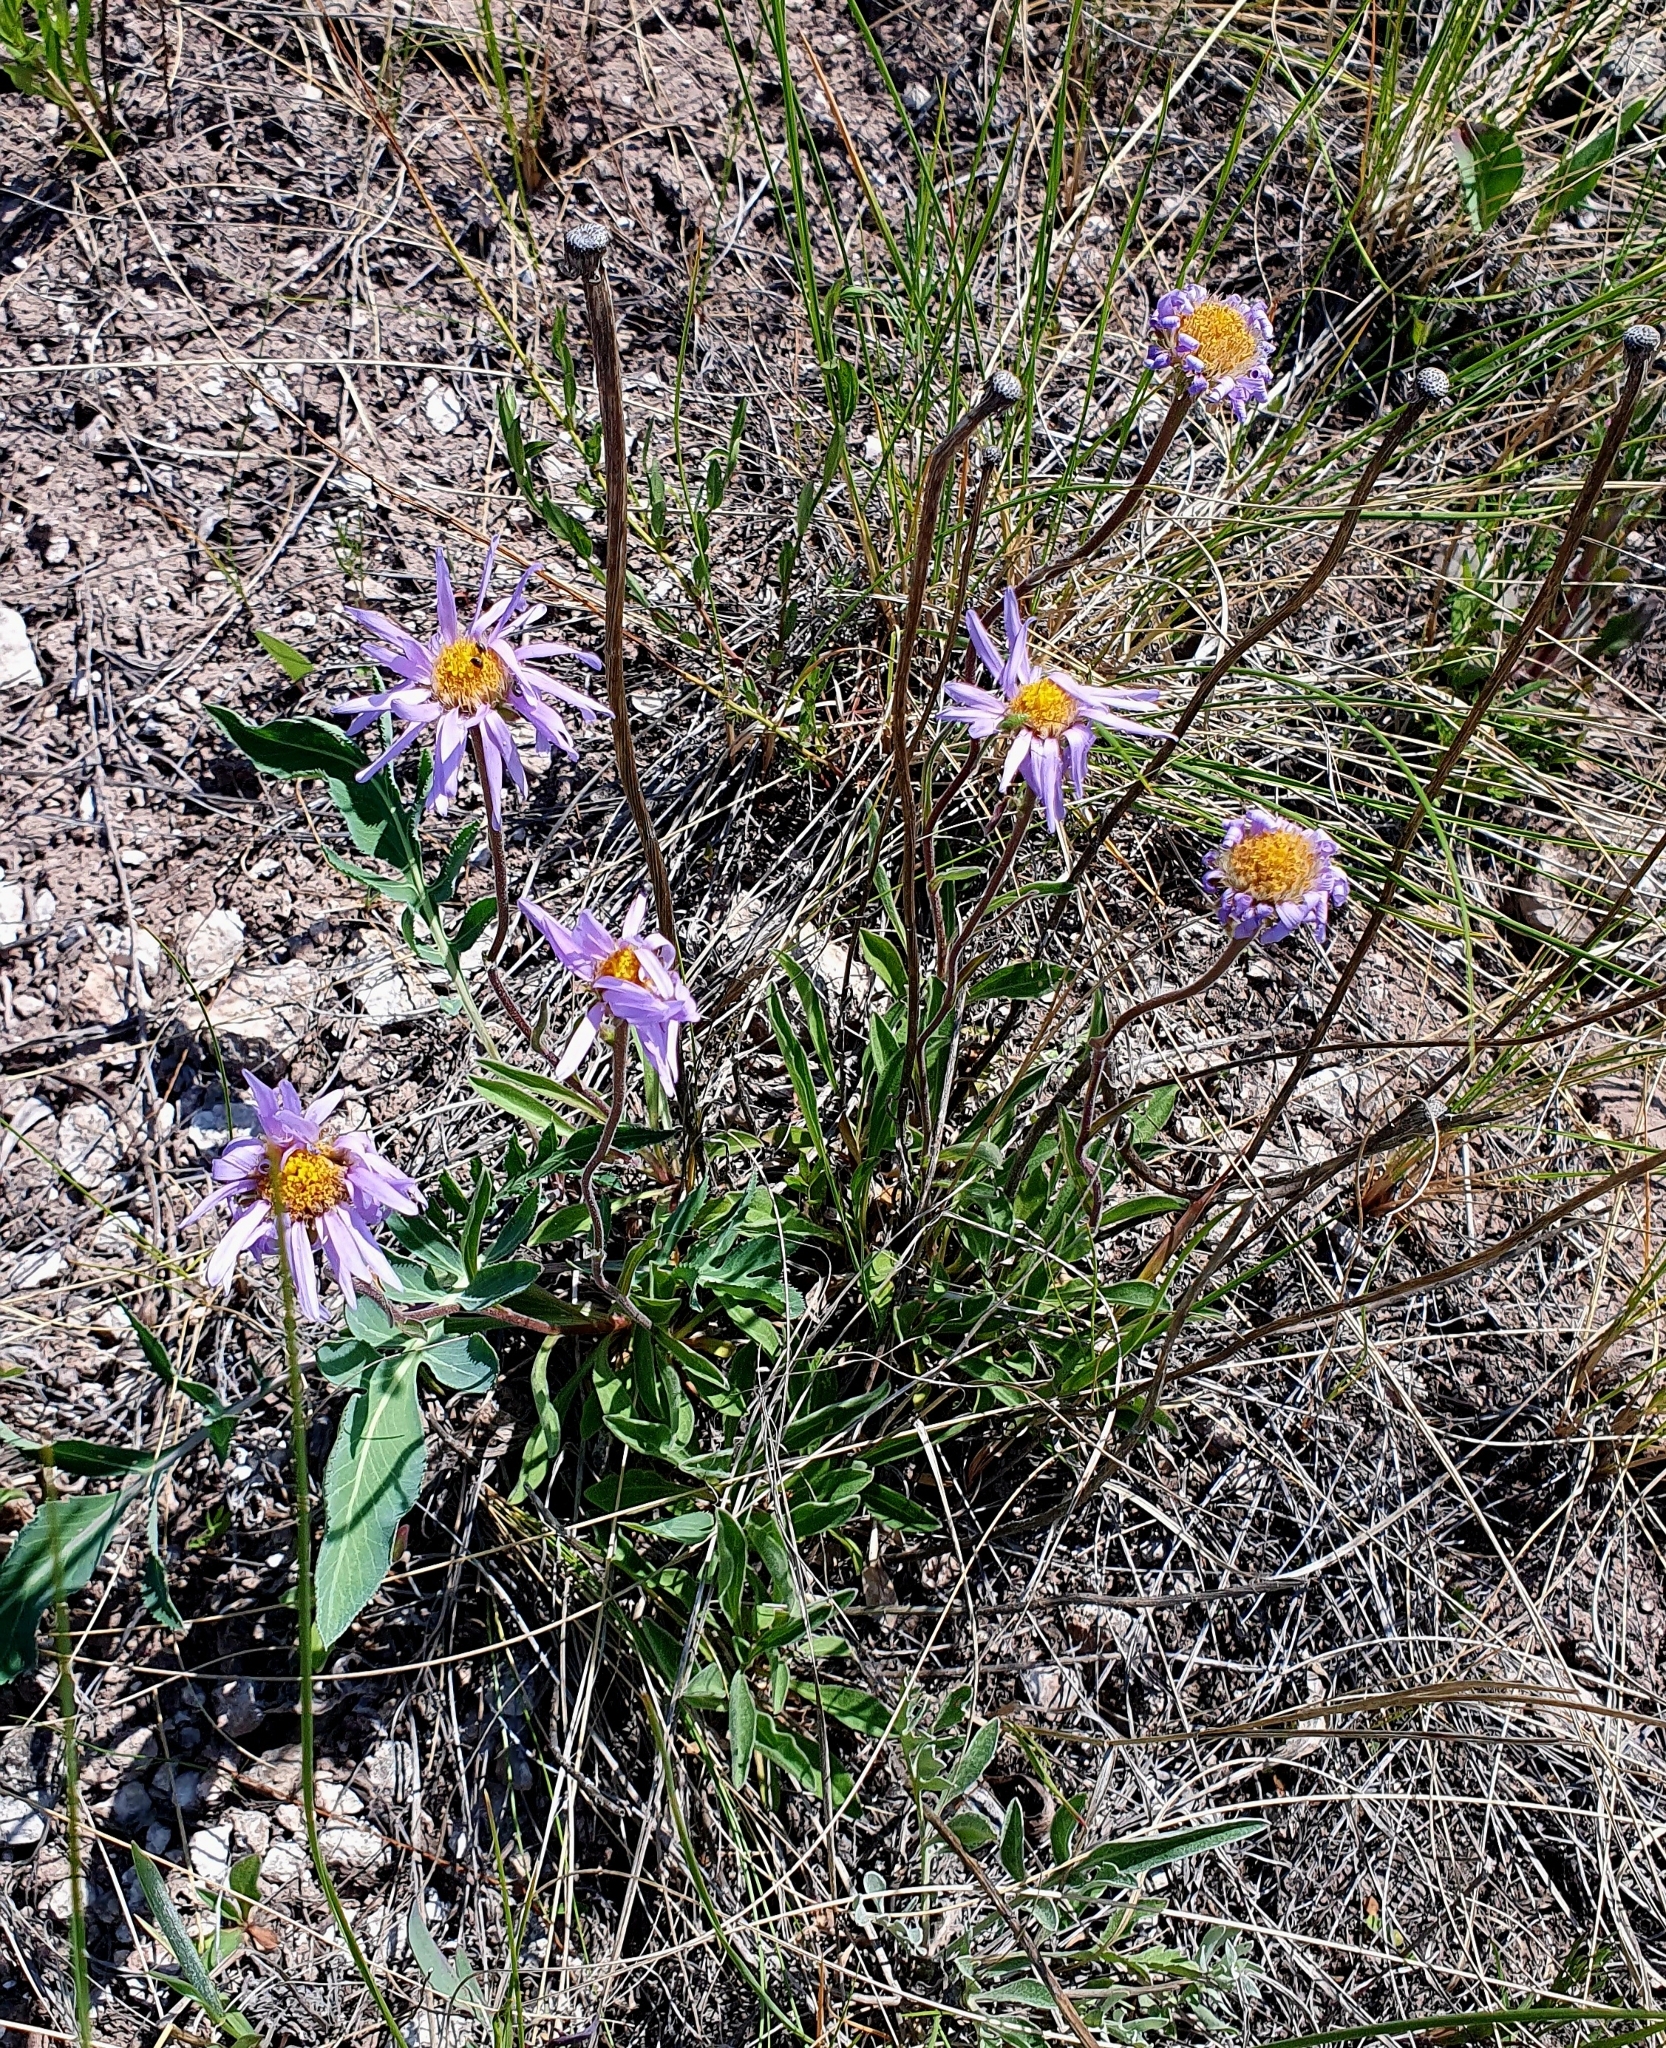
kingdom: Plantae
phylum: Tracheophyta
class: Magnoliopsida
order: Asterales
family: Asteraceae
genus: Aster
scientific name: Aster alpinus
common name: Alpine aster
